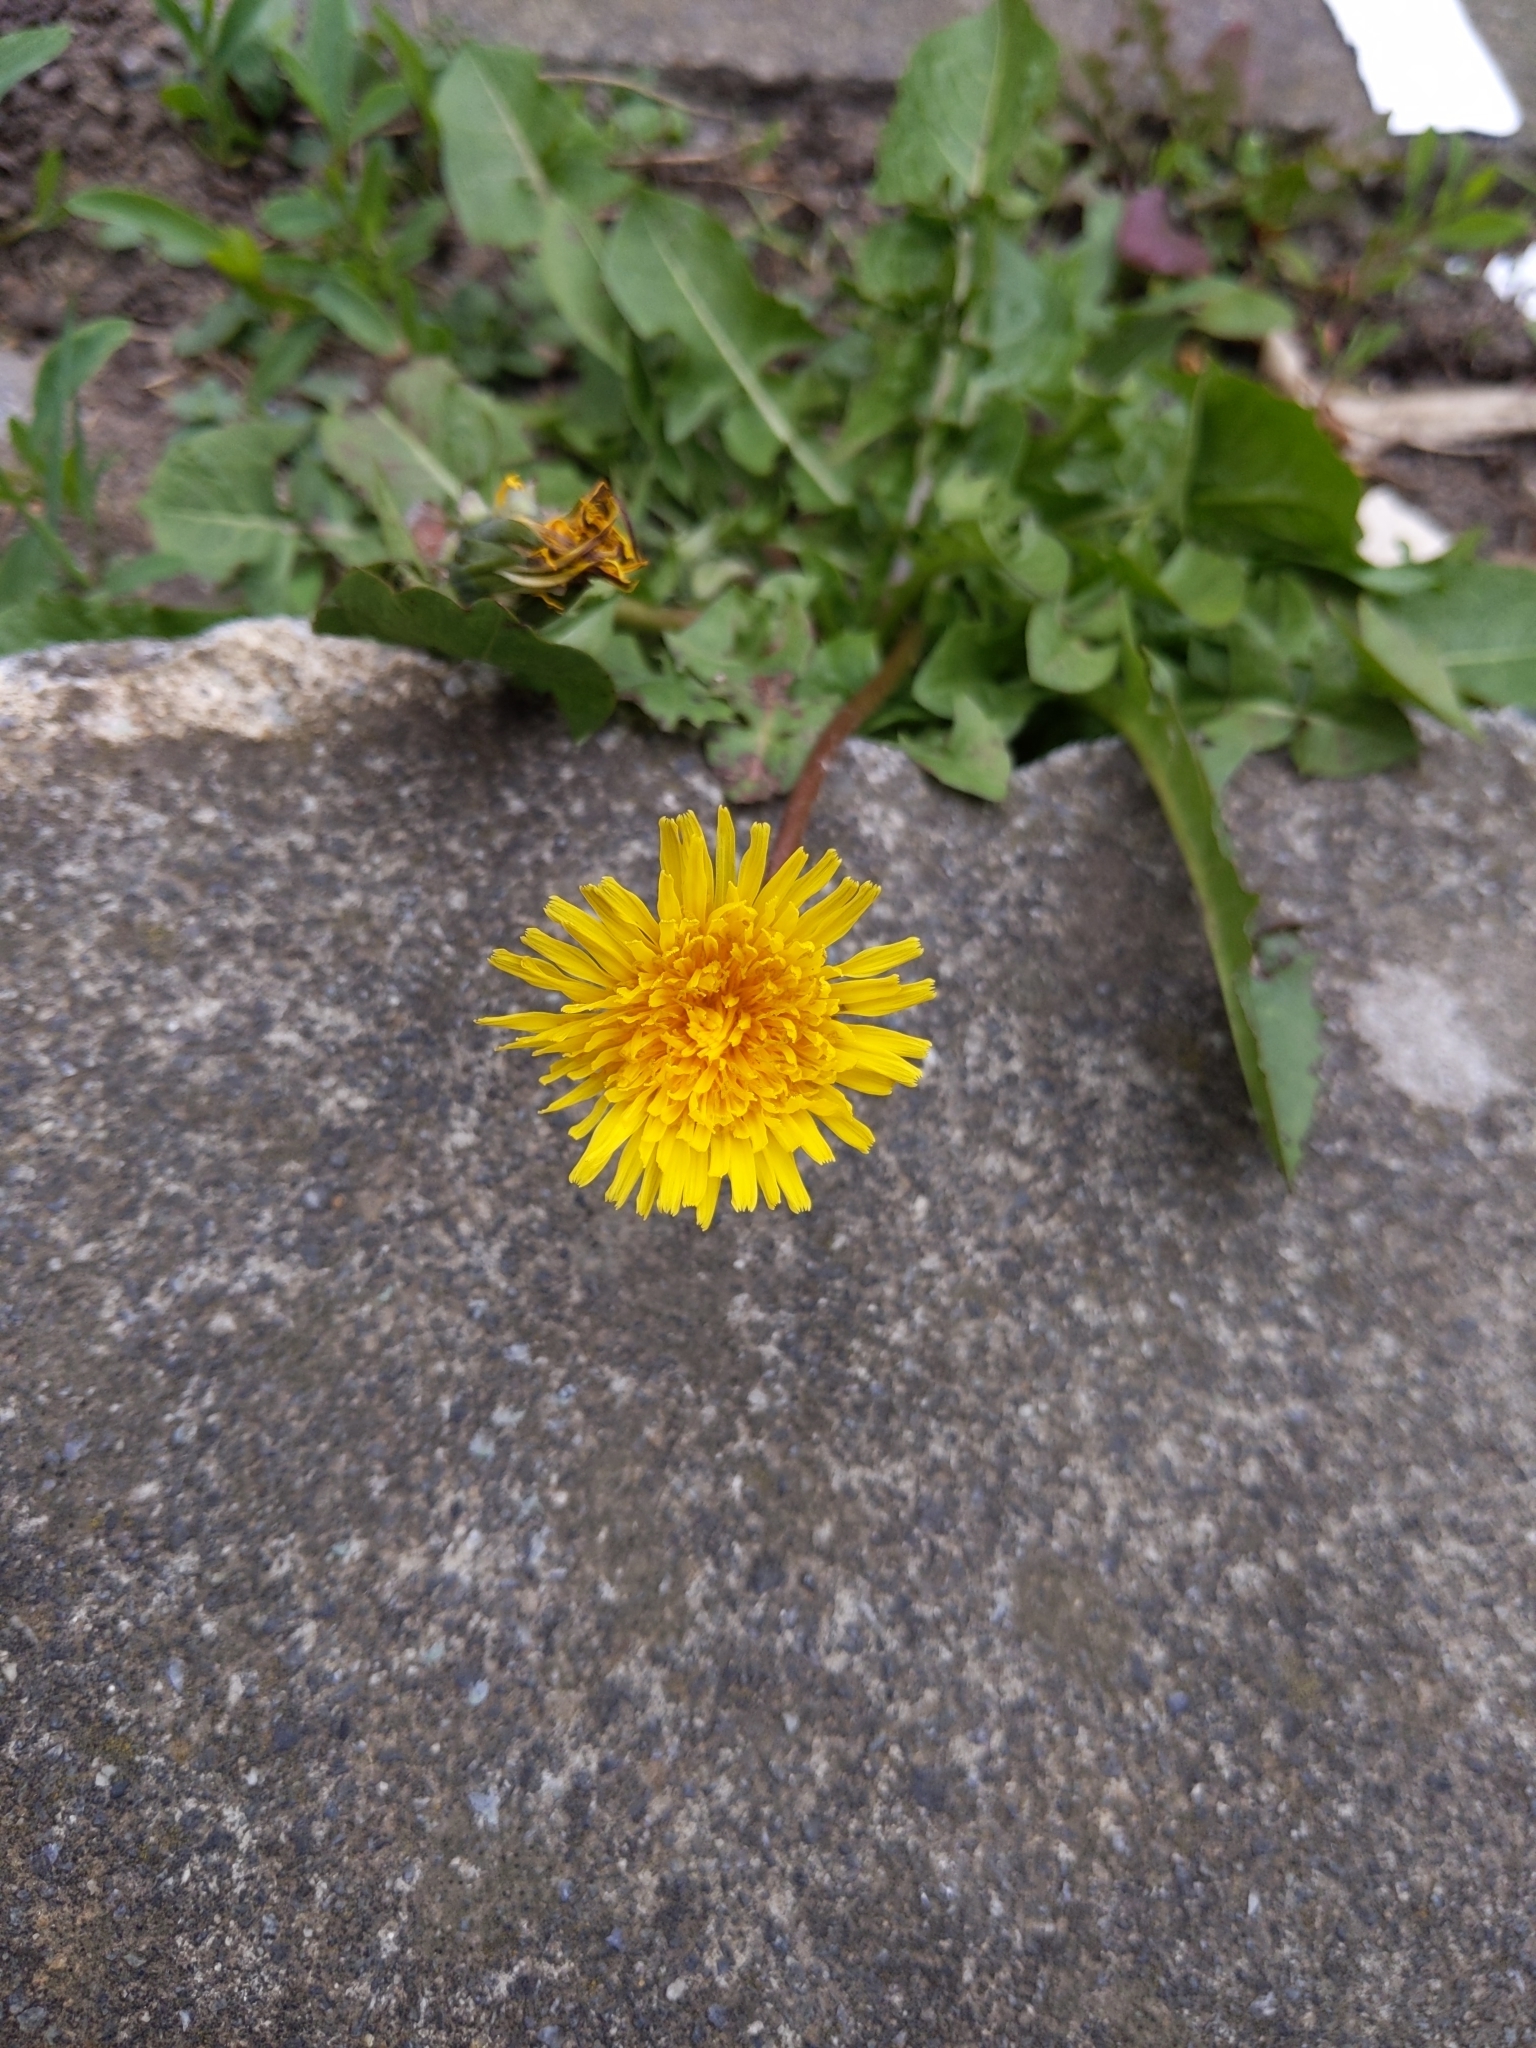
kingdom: Plantae
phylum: Tracheophyta
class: Magnoliopsida
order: Asterales
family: Asteraceae
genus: Taraxacum
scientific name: Taraxacum officinale
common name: Common dandelion
